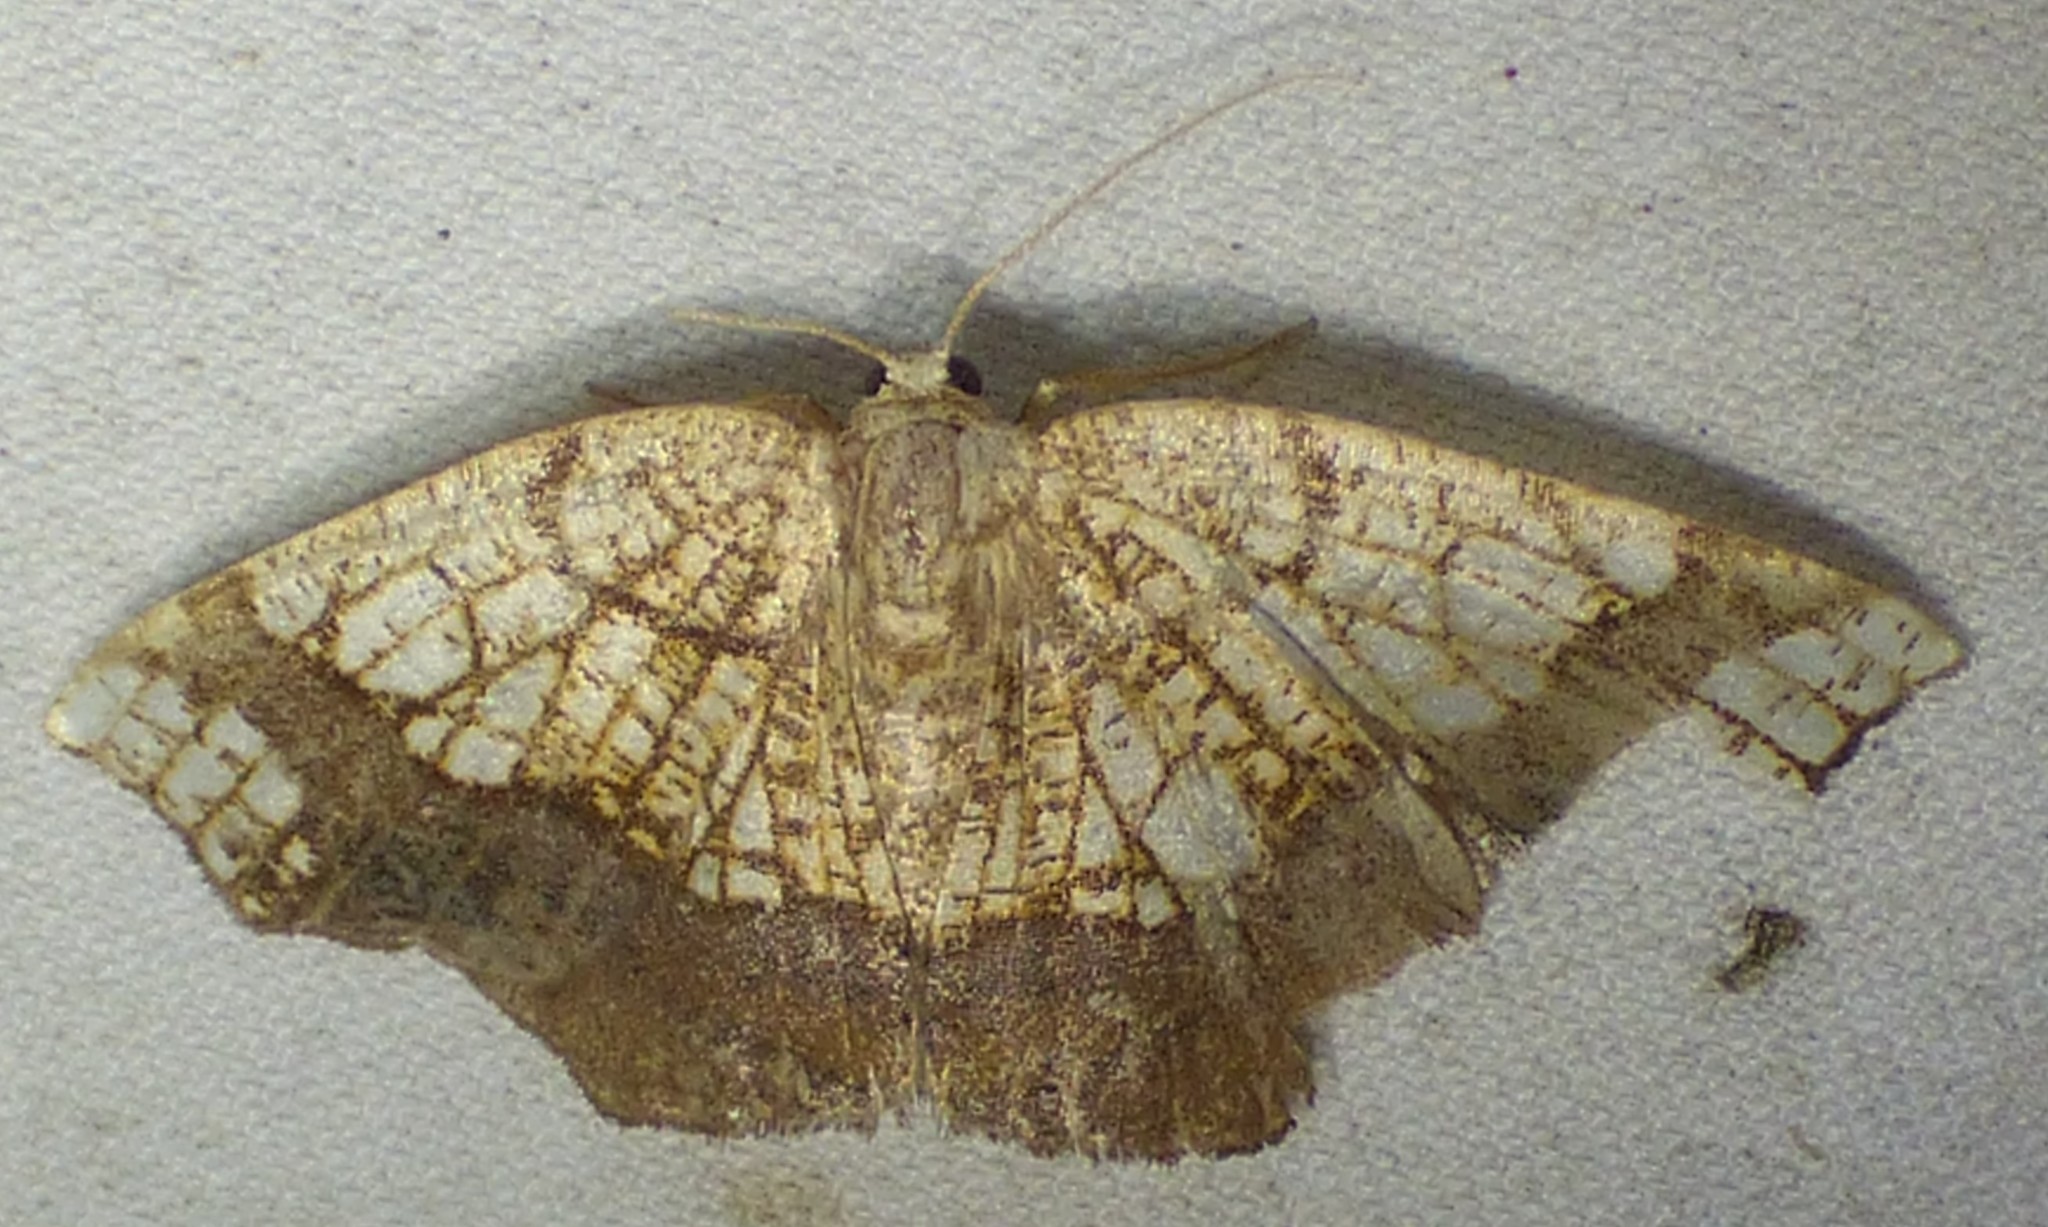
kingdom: Animalia
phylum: Arthropoda
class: Insecta
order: Lepidoptera
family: Geometridae
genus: Nematocampa
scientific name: Nematocampa resistaria
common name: Horned spanworm moth
